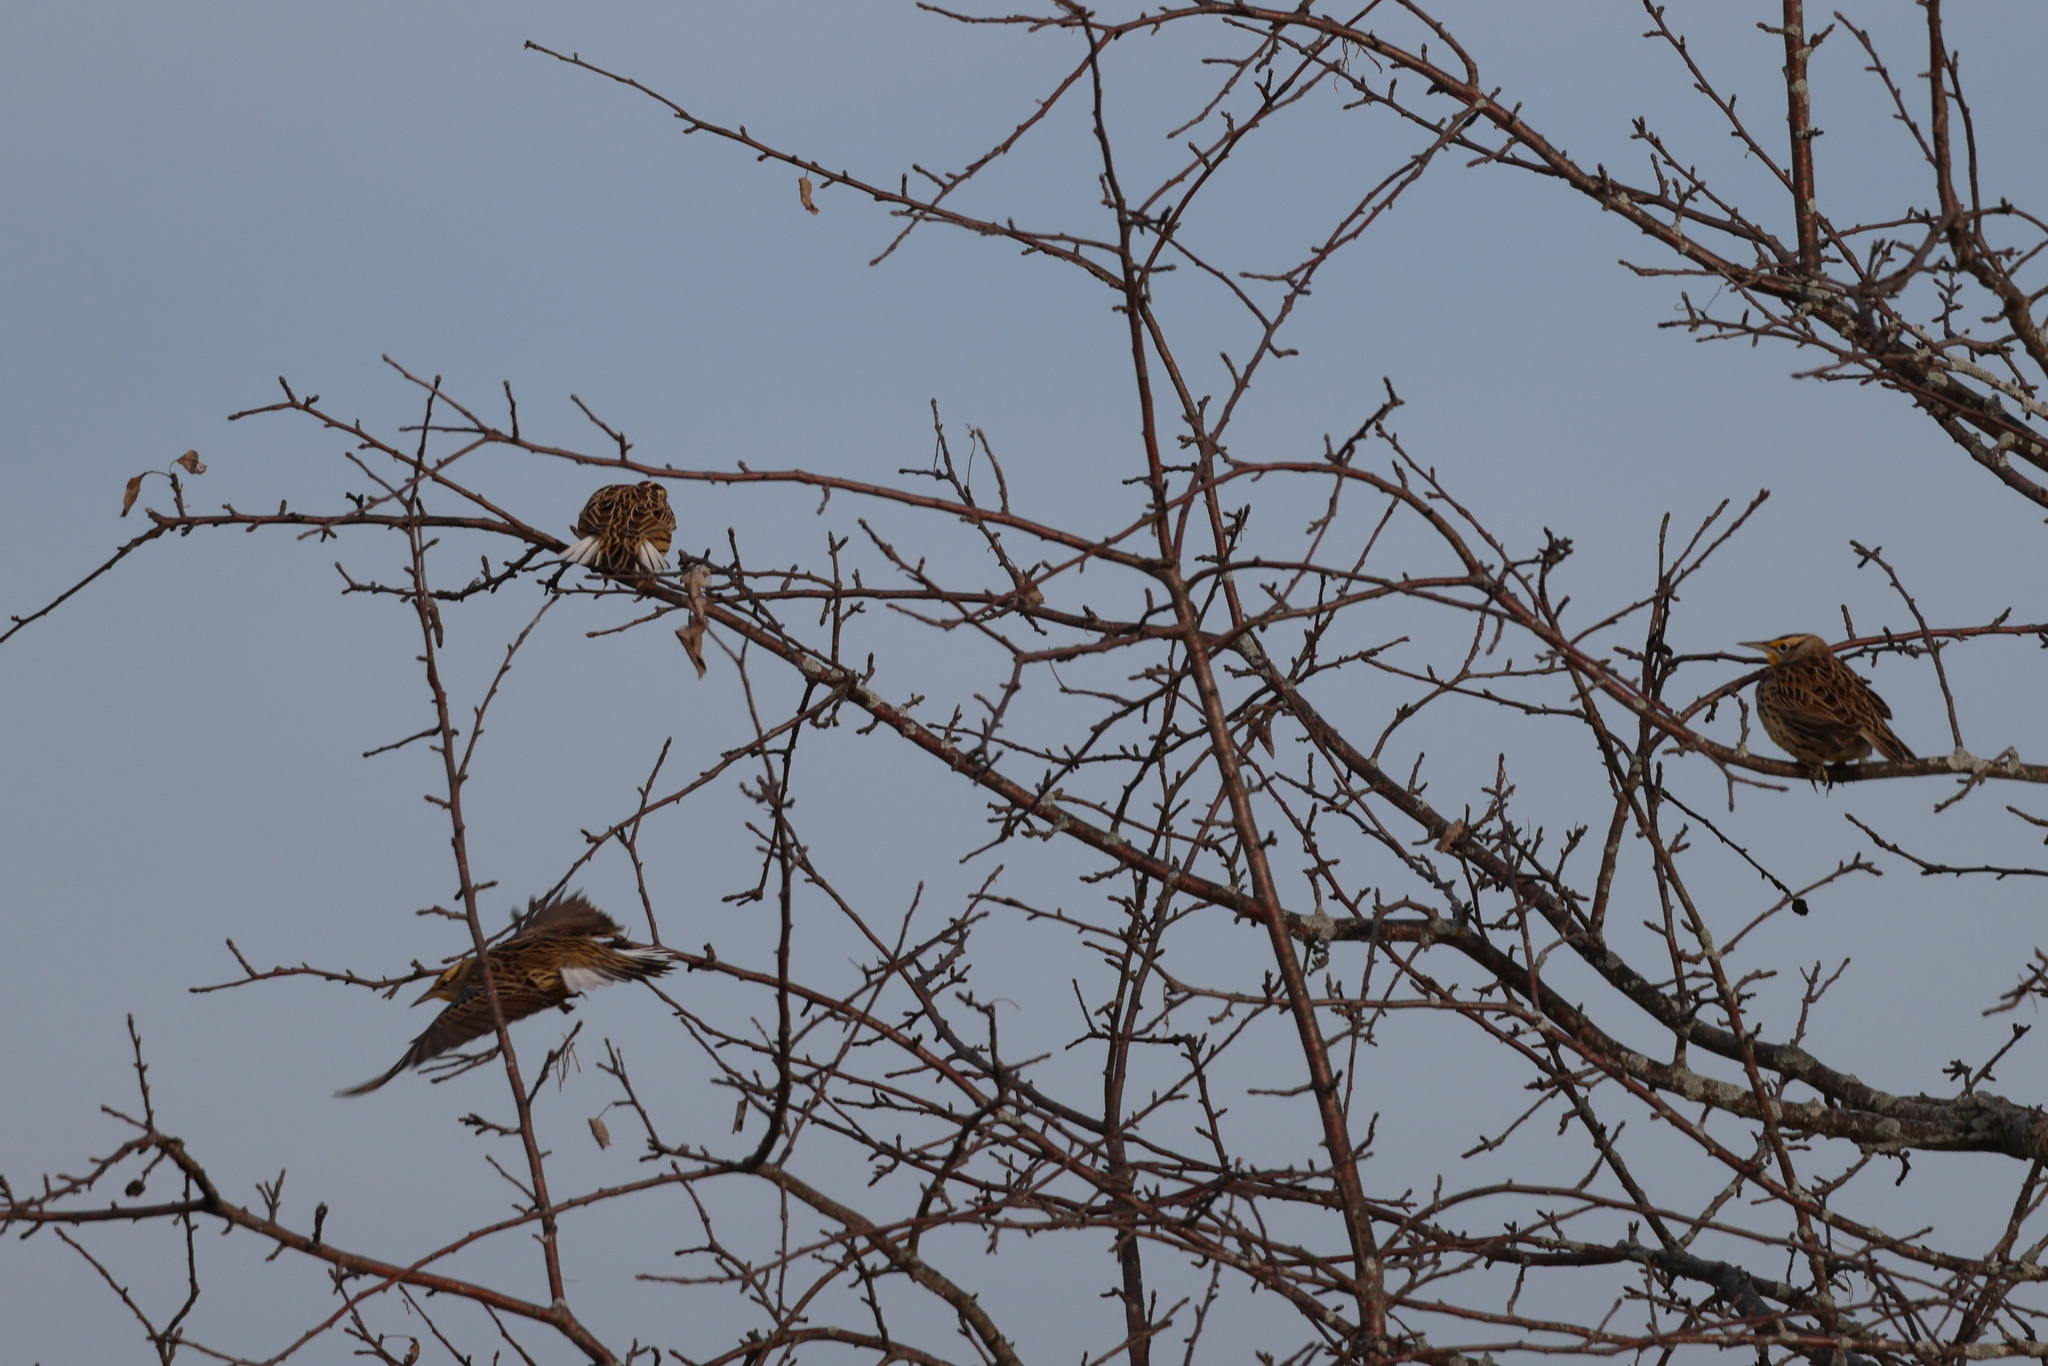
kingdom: Animalia
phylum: Chordata
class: Aves
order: Passeriformes
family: Icteridae
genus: Sturnella
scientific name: Sturnella magna
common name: Eastern meadowlark
